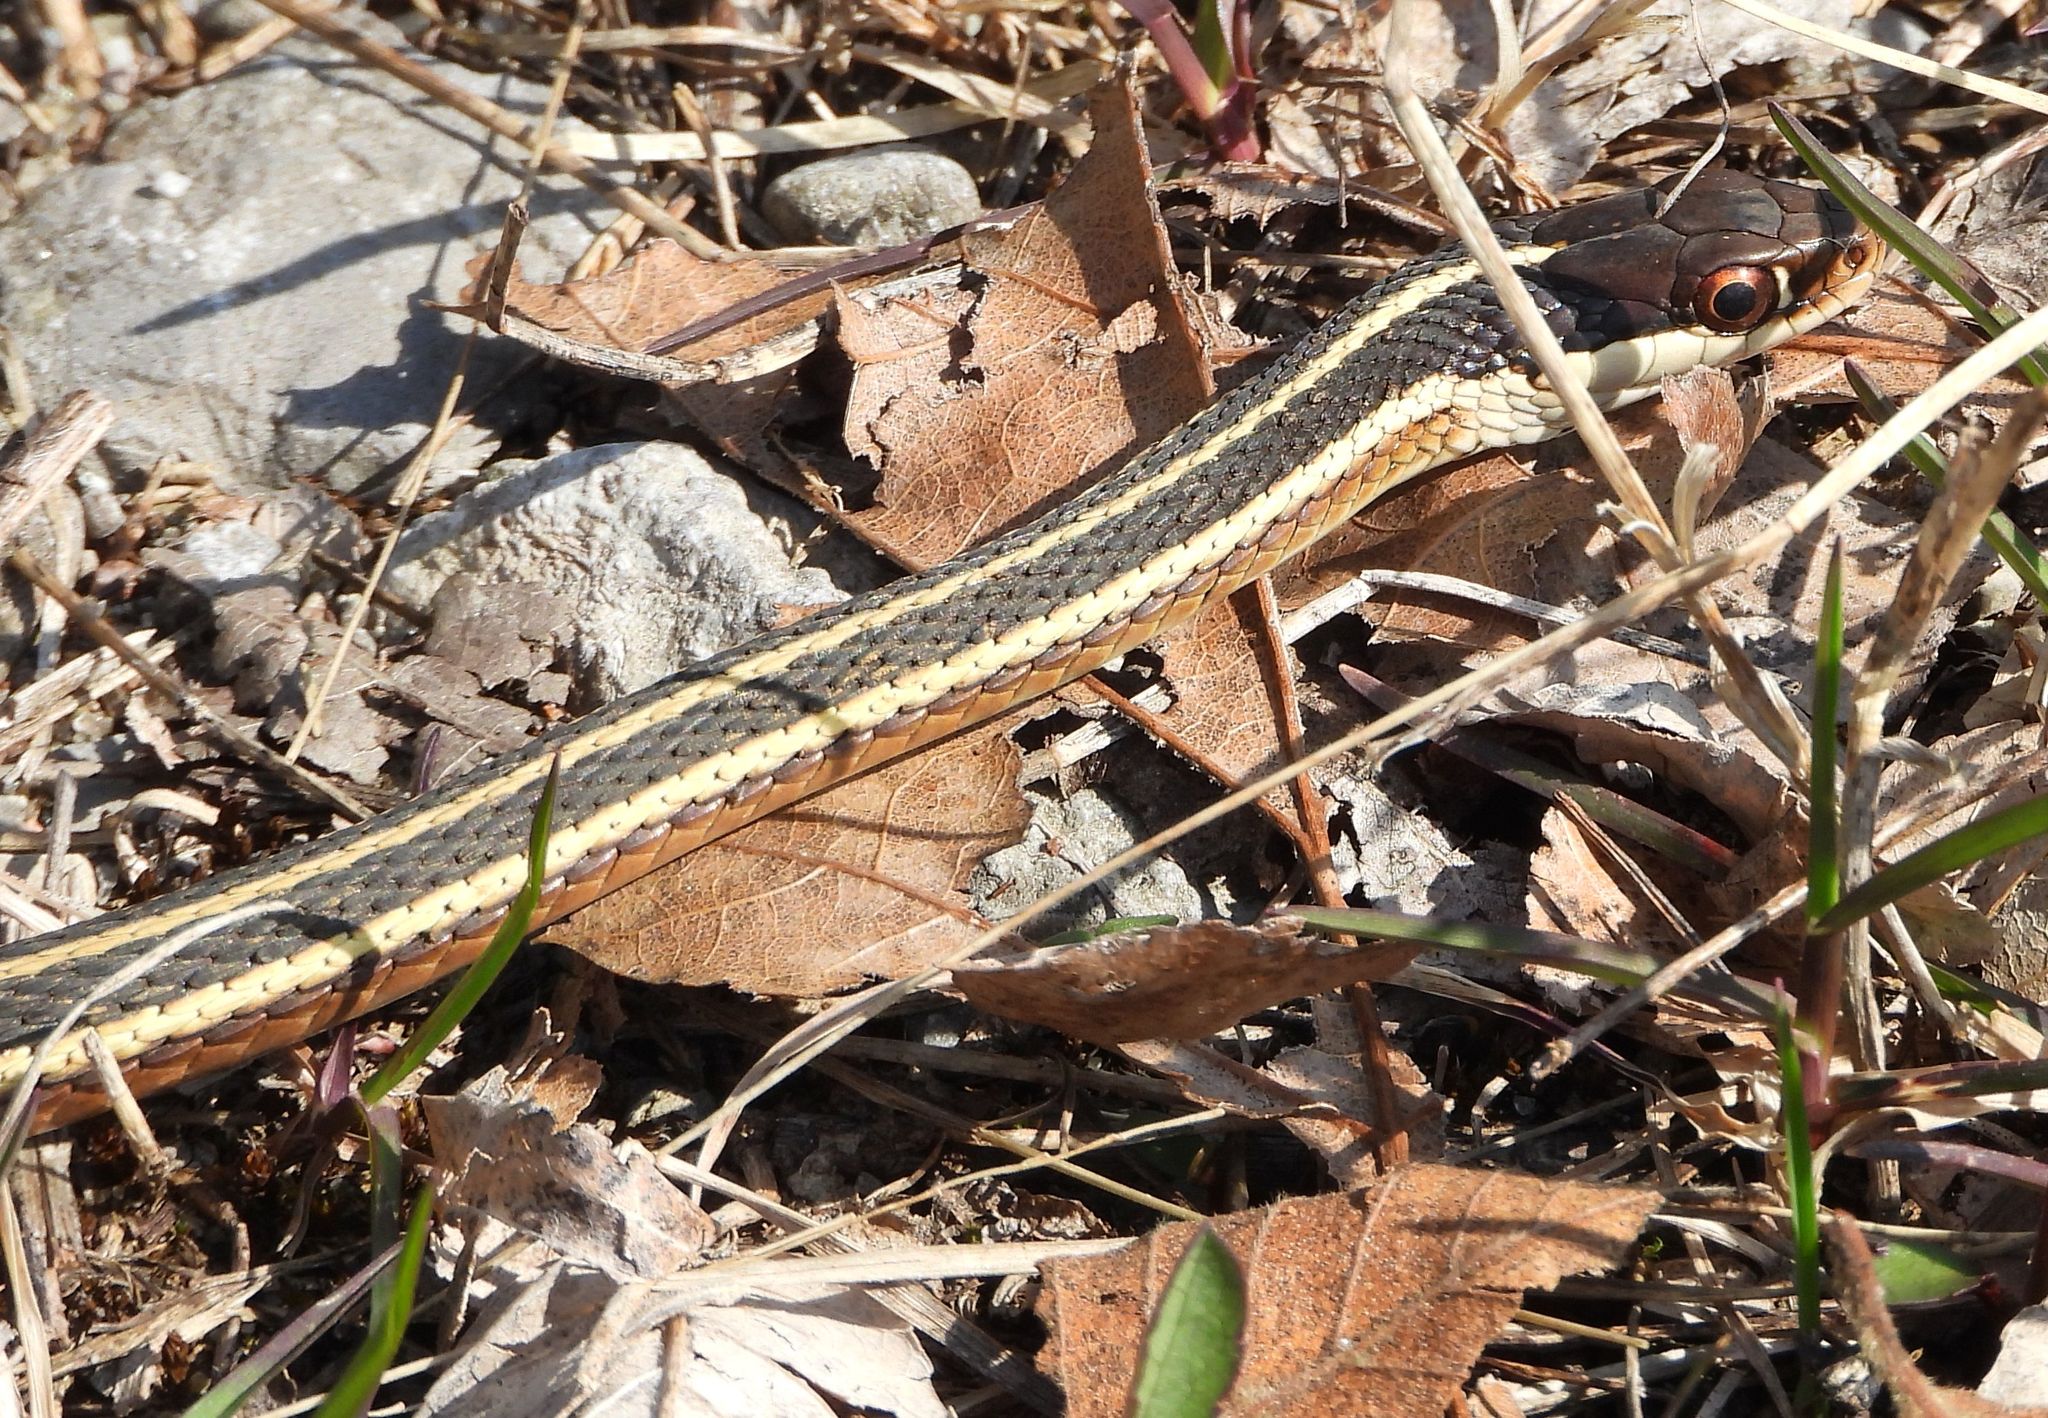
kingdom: Animalia
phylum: Chordata
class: Squamata
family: Colubridae
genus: Thamnophis
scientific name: Thamnophis saurita
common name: Eastern ribbonsnake
